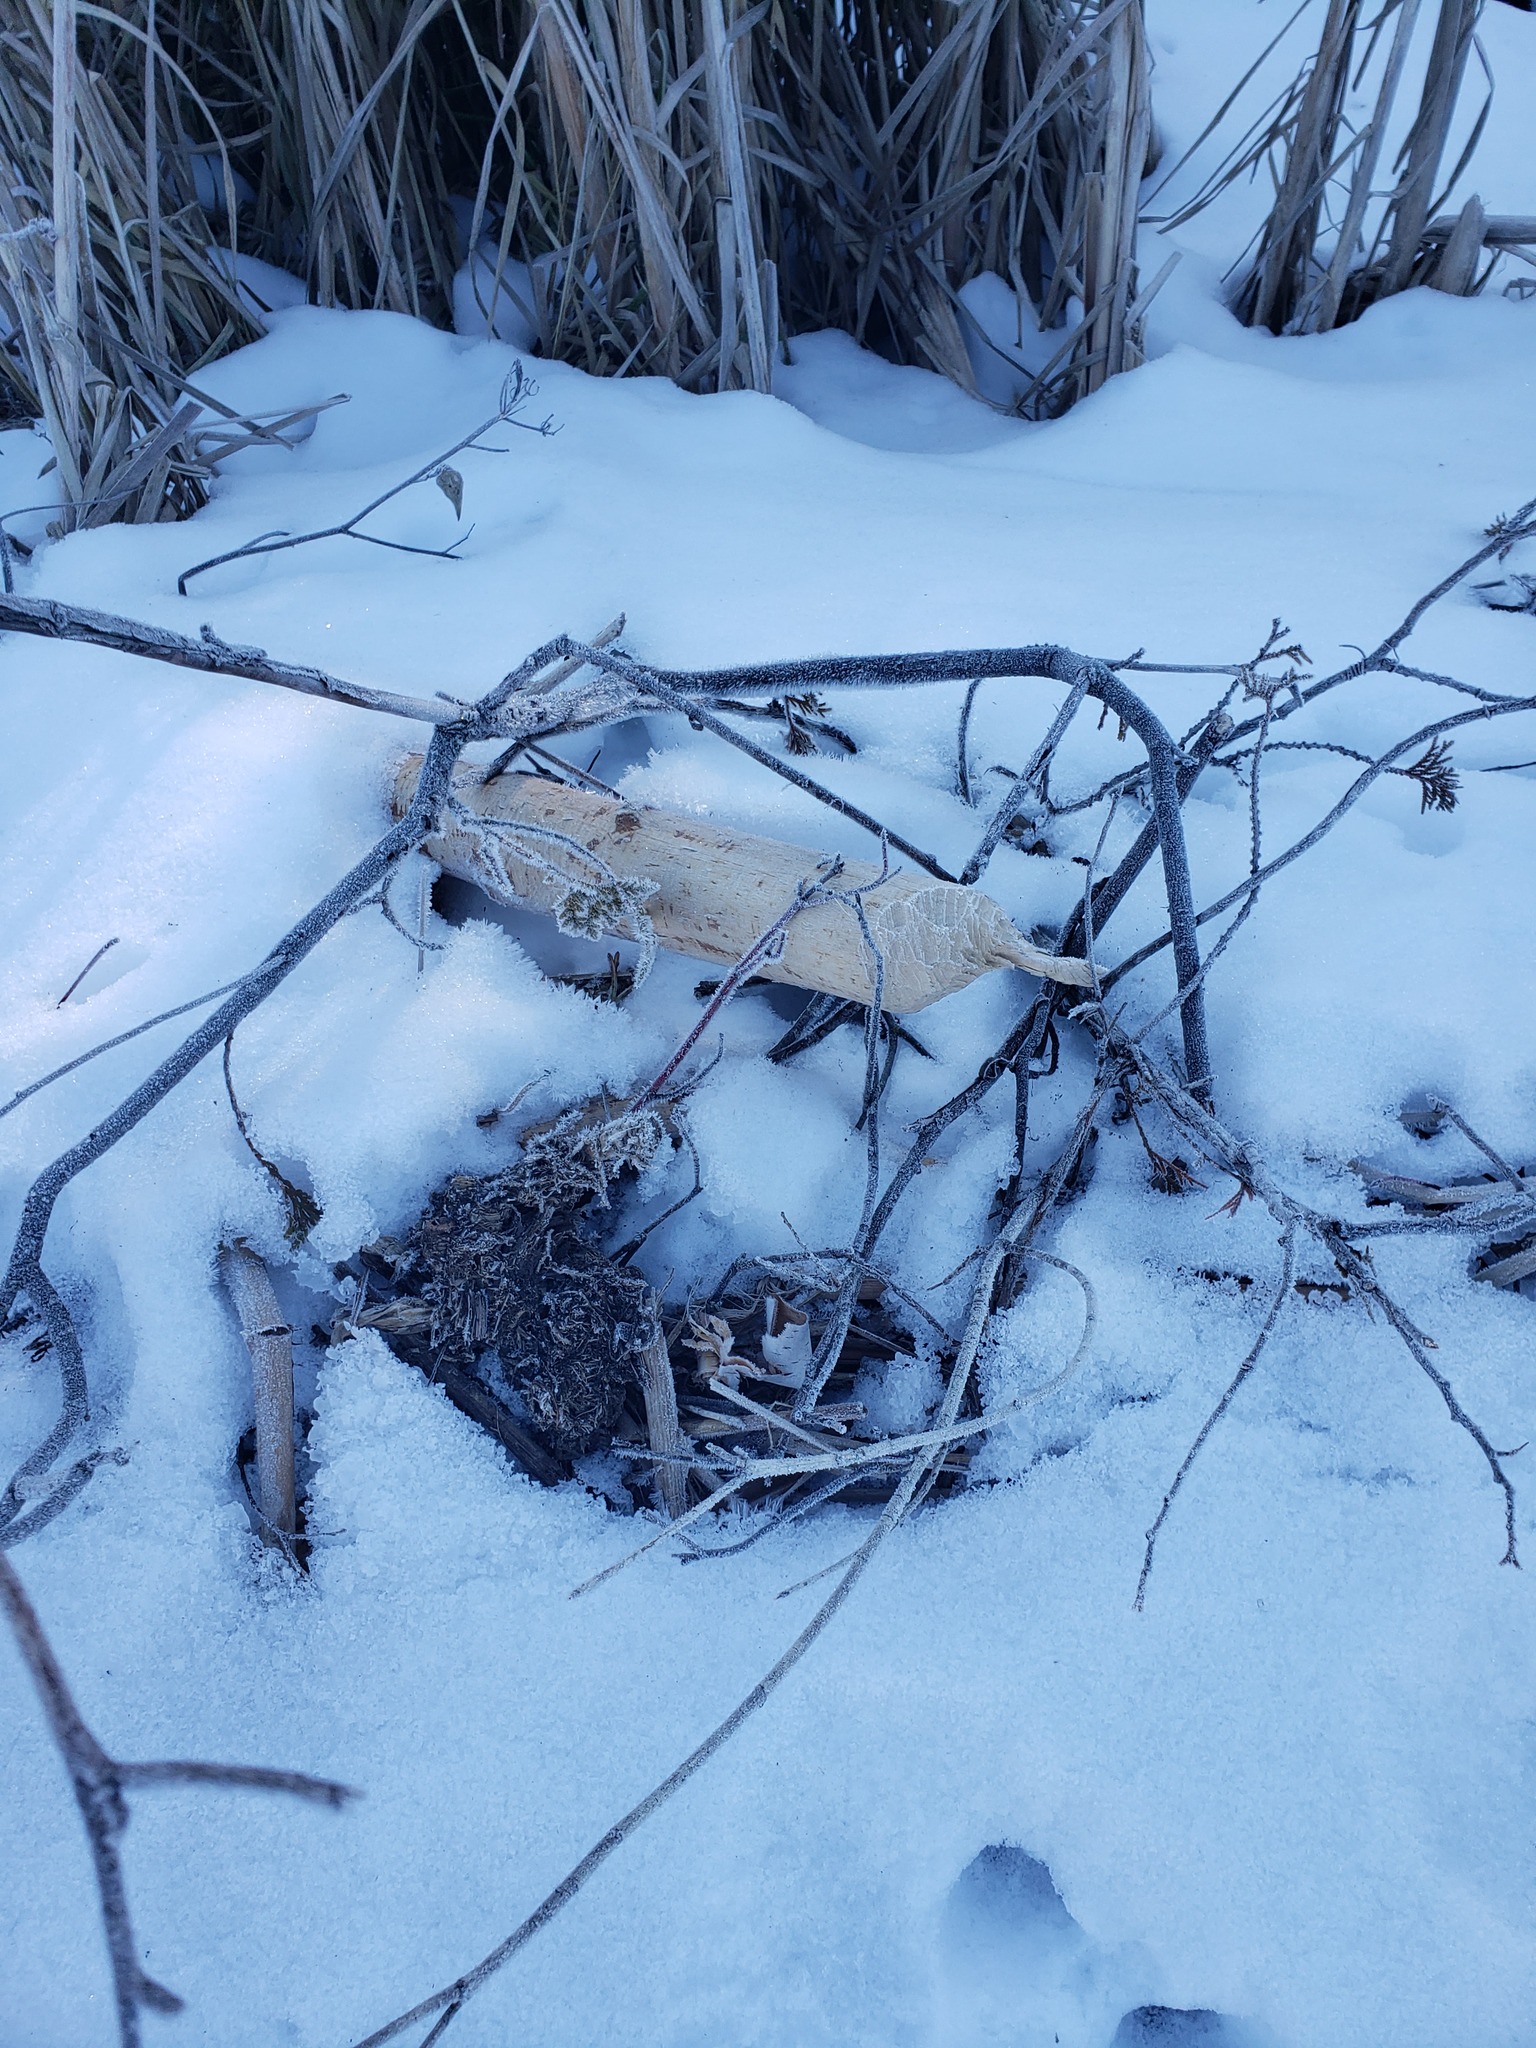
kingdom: Animalia
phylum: Chordata
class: Mammalia
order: Rodentia
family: Castoridae
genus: Castor
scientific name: Castor canadensis
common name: American beaver
